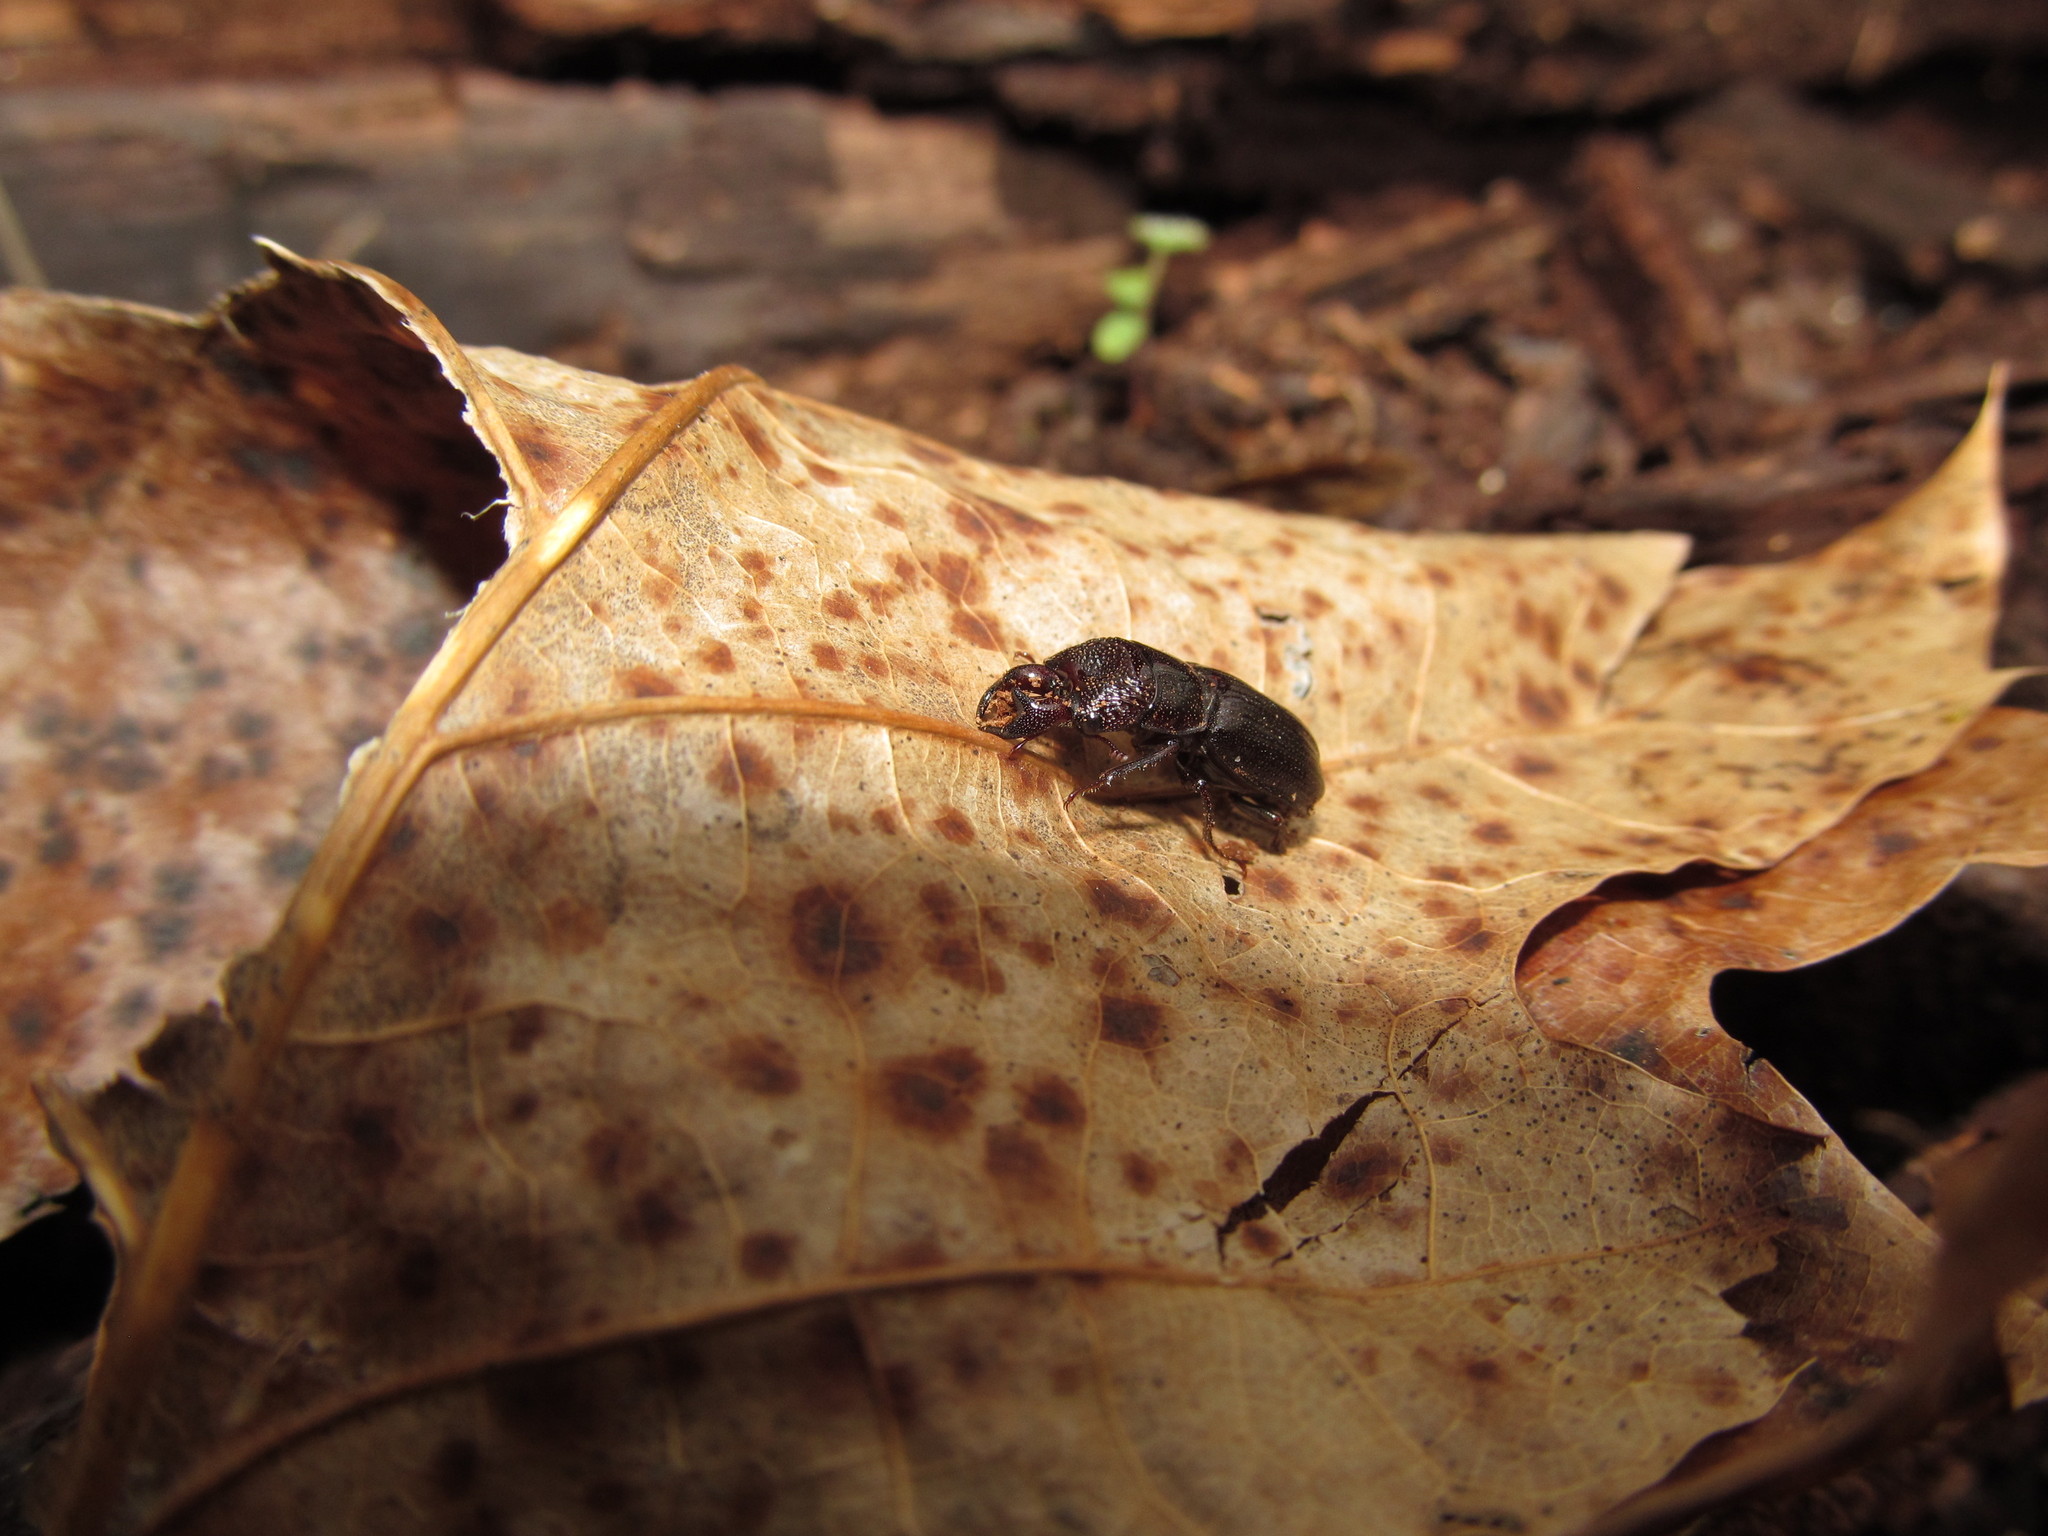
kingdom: Animalia
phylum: Arthropoda
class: Insecta
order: Coleoptera
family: Lucanidae
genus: Ceruchus
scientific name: Ceruchus piceus
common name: Red-rot decay stag beetle
